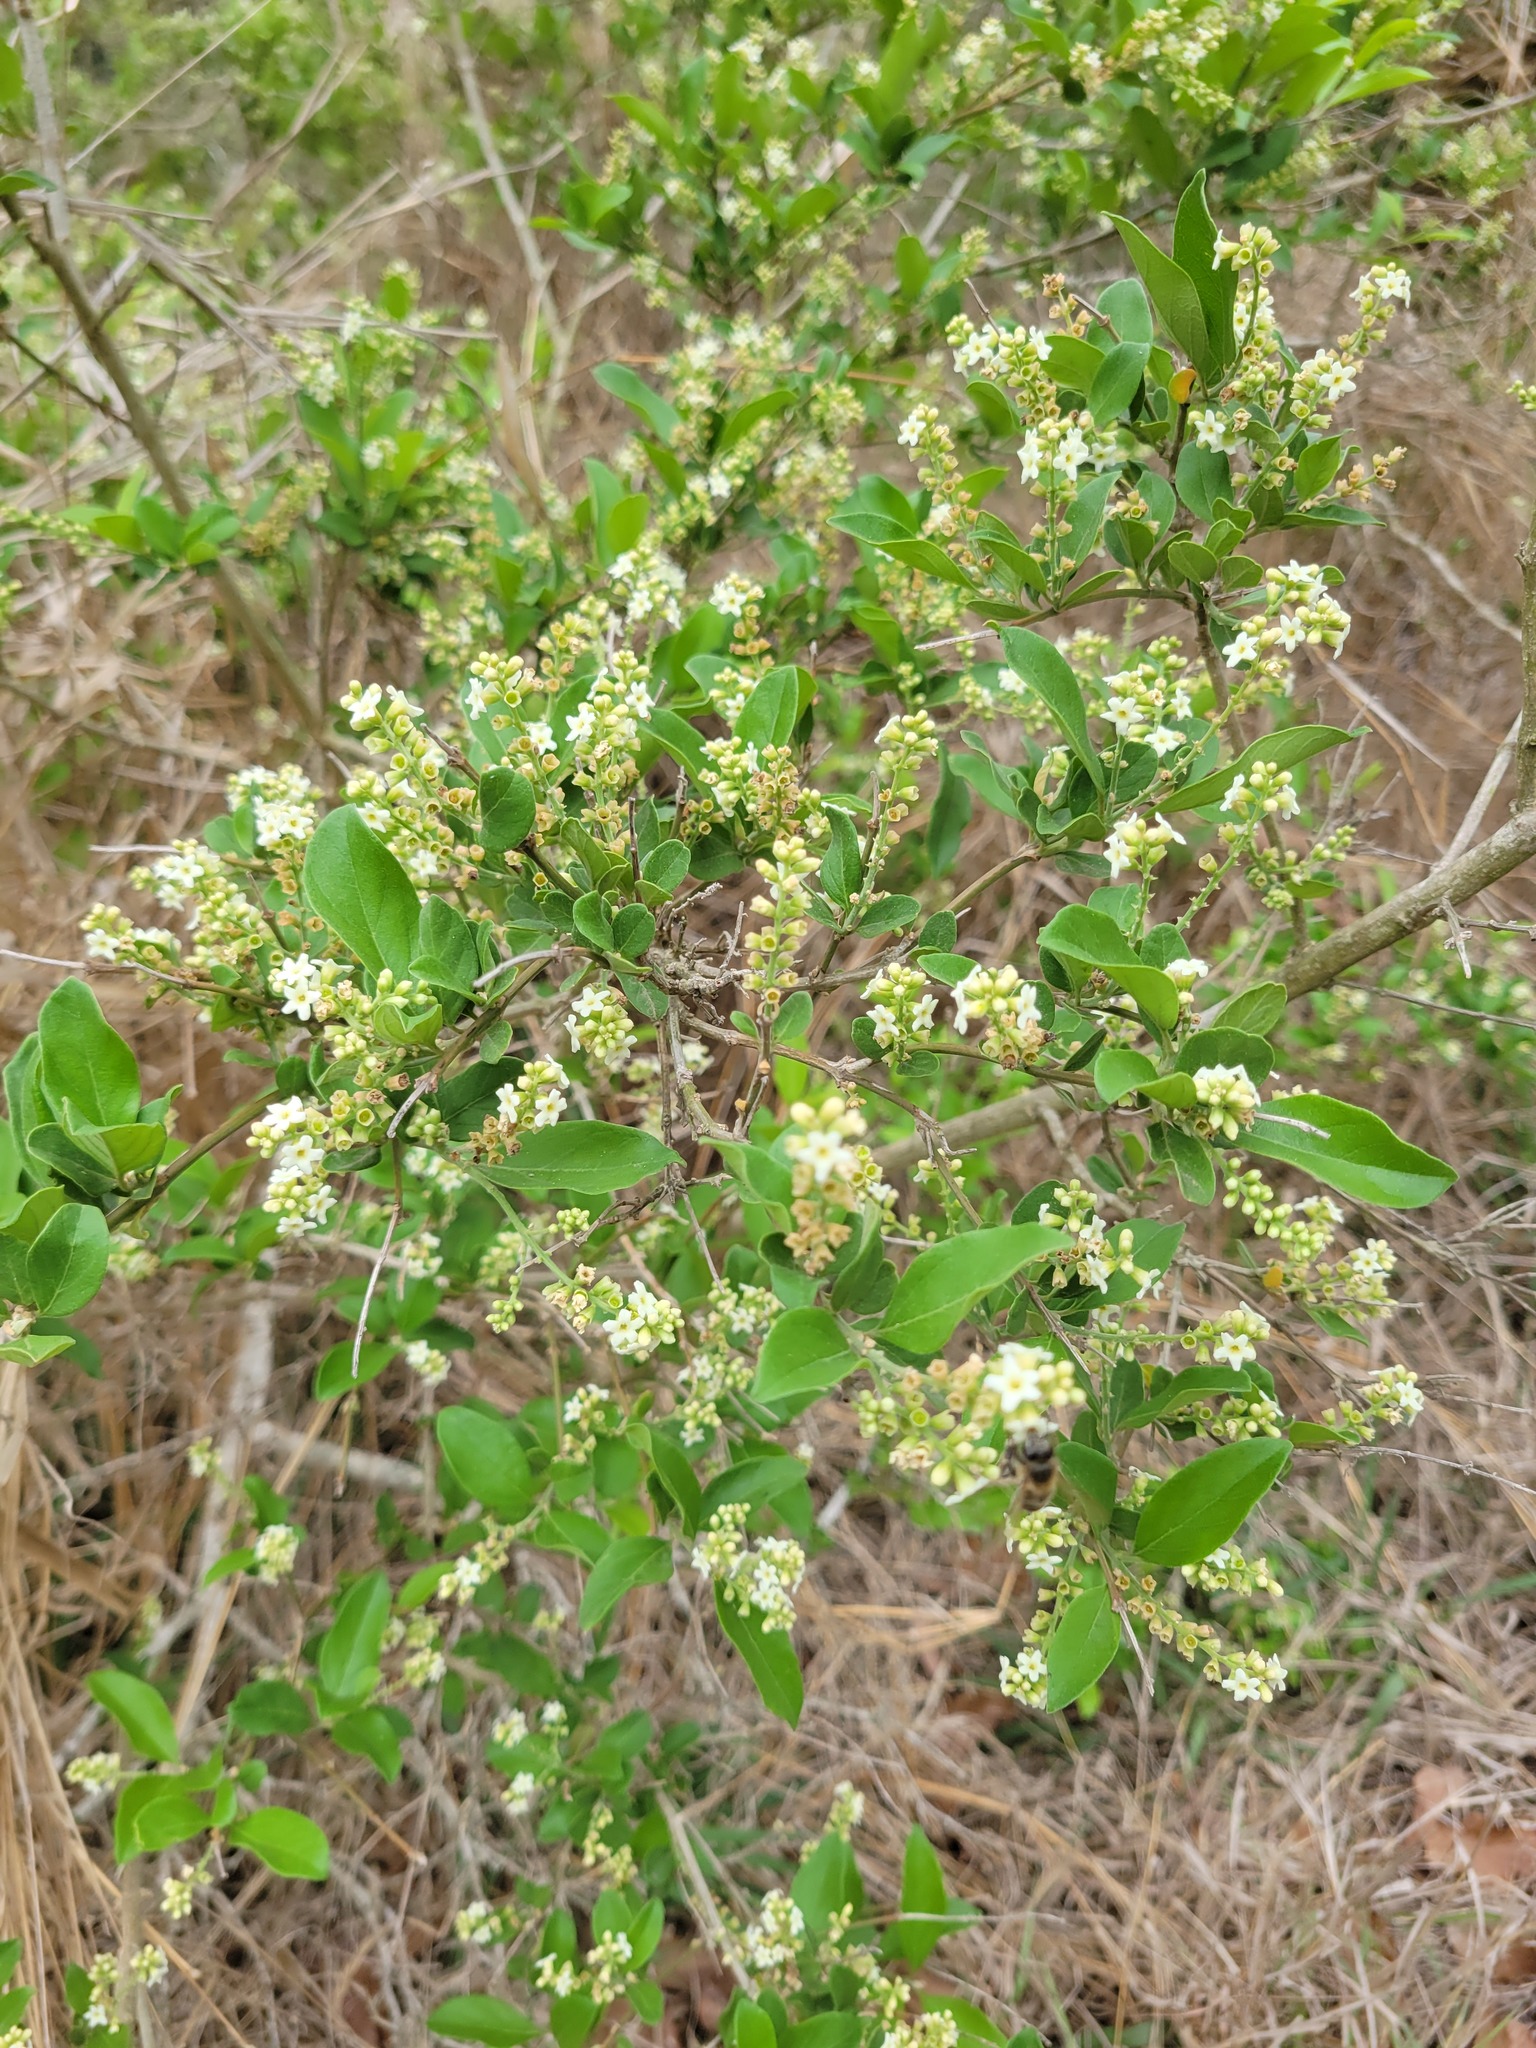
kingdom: Plantae
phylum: Tracheophyta
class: Magnoliopsida
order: Lamiales
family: Verbenaceae
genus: Citharexylum
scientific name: Citharexylum berlandieri
